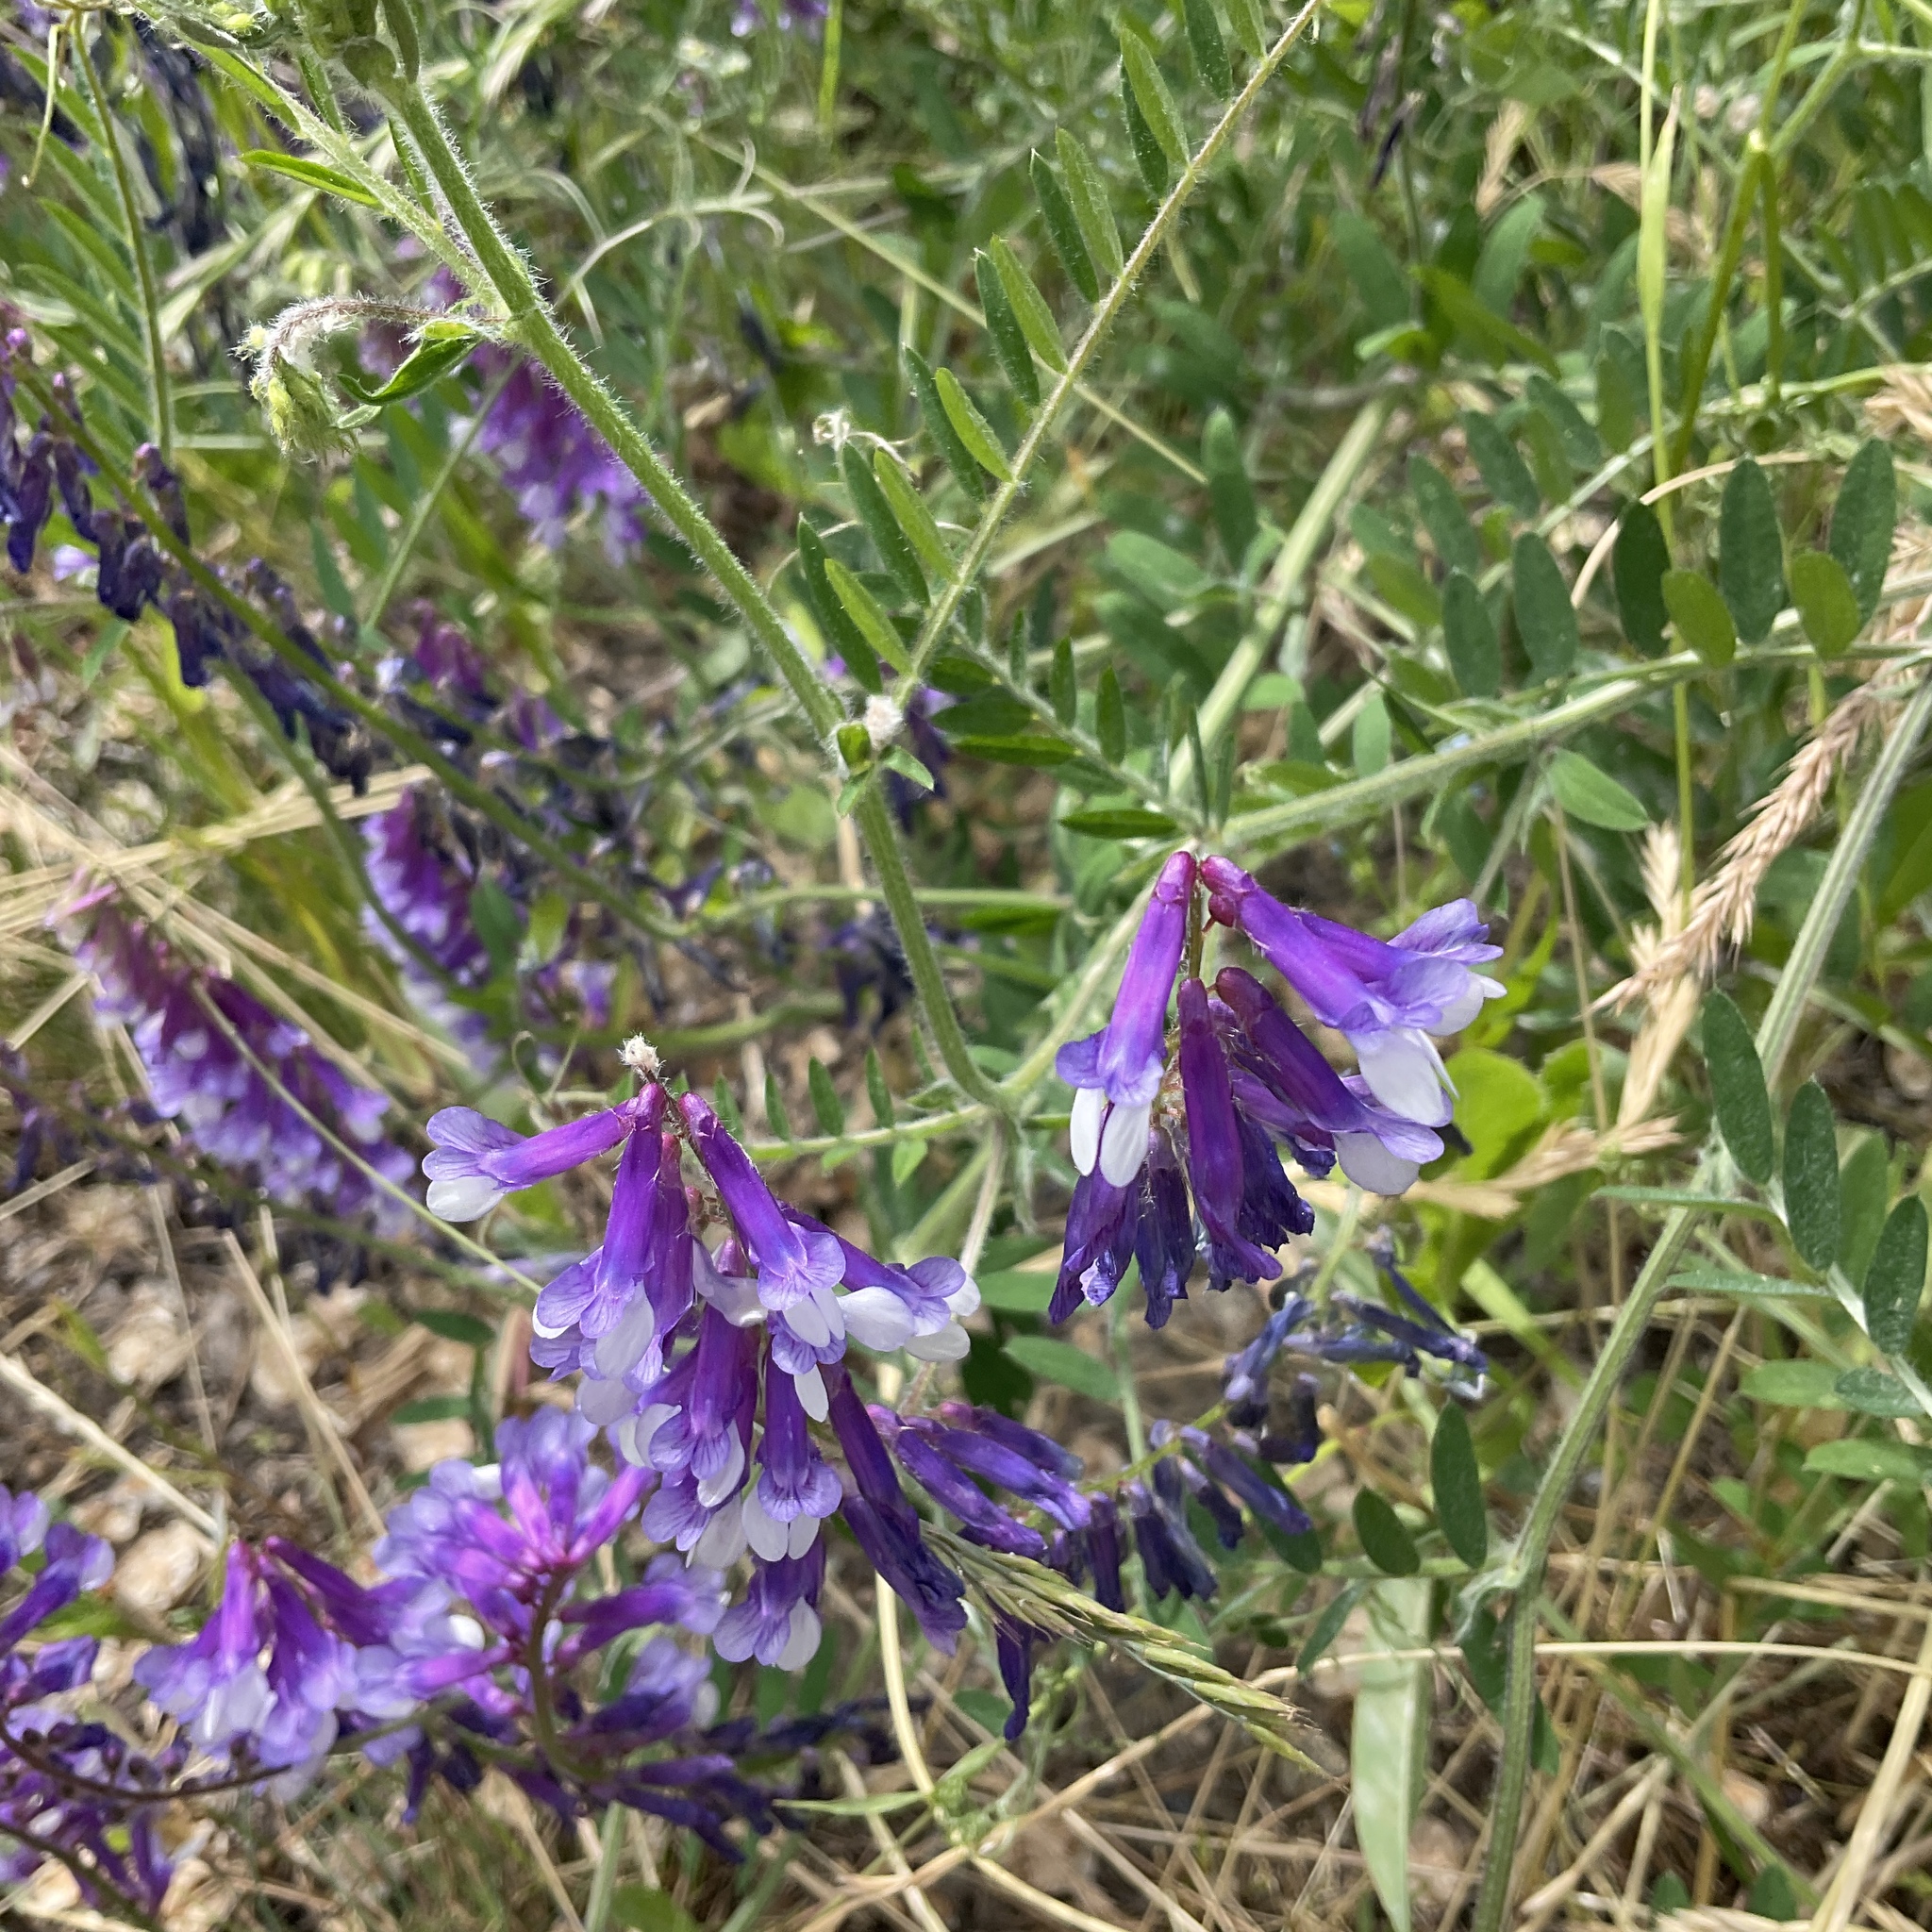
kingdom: Plantae
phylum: Tracheophyta
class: Magnoliopsida
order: Fabales
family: Fabaceae
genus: Vicia
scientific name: Vicia villosa
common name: Fodder vetch
